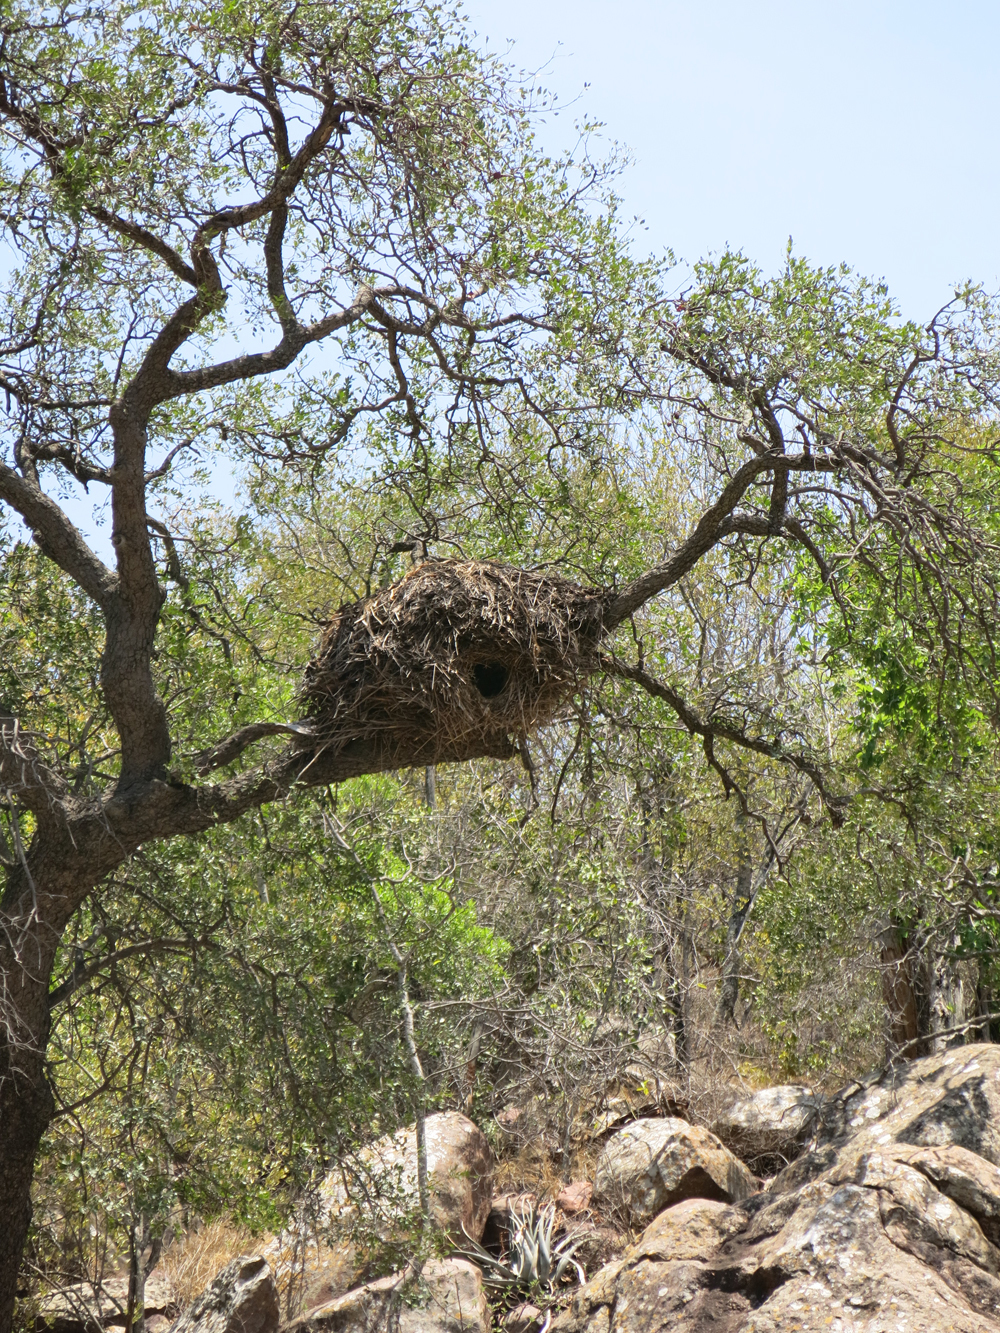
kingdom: Animalia
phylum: Chordata
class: Aves
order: Pelecaniformes
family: Scopidae
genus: Scopus
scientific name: Scopus umbretta
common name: Hamerkop
